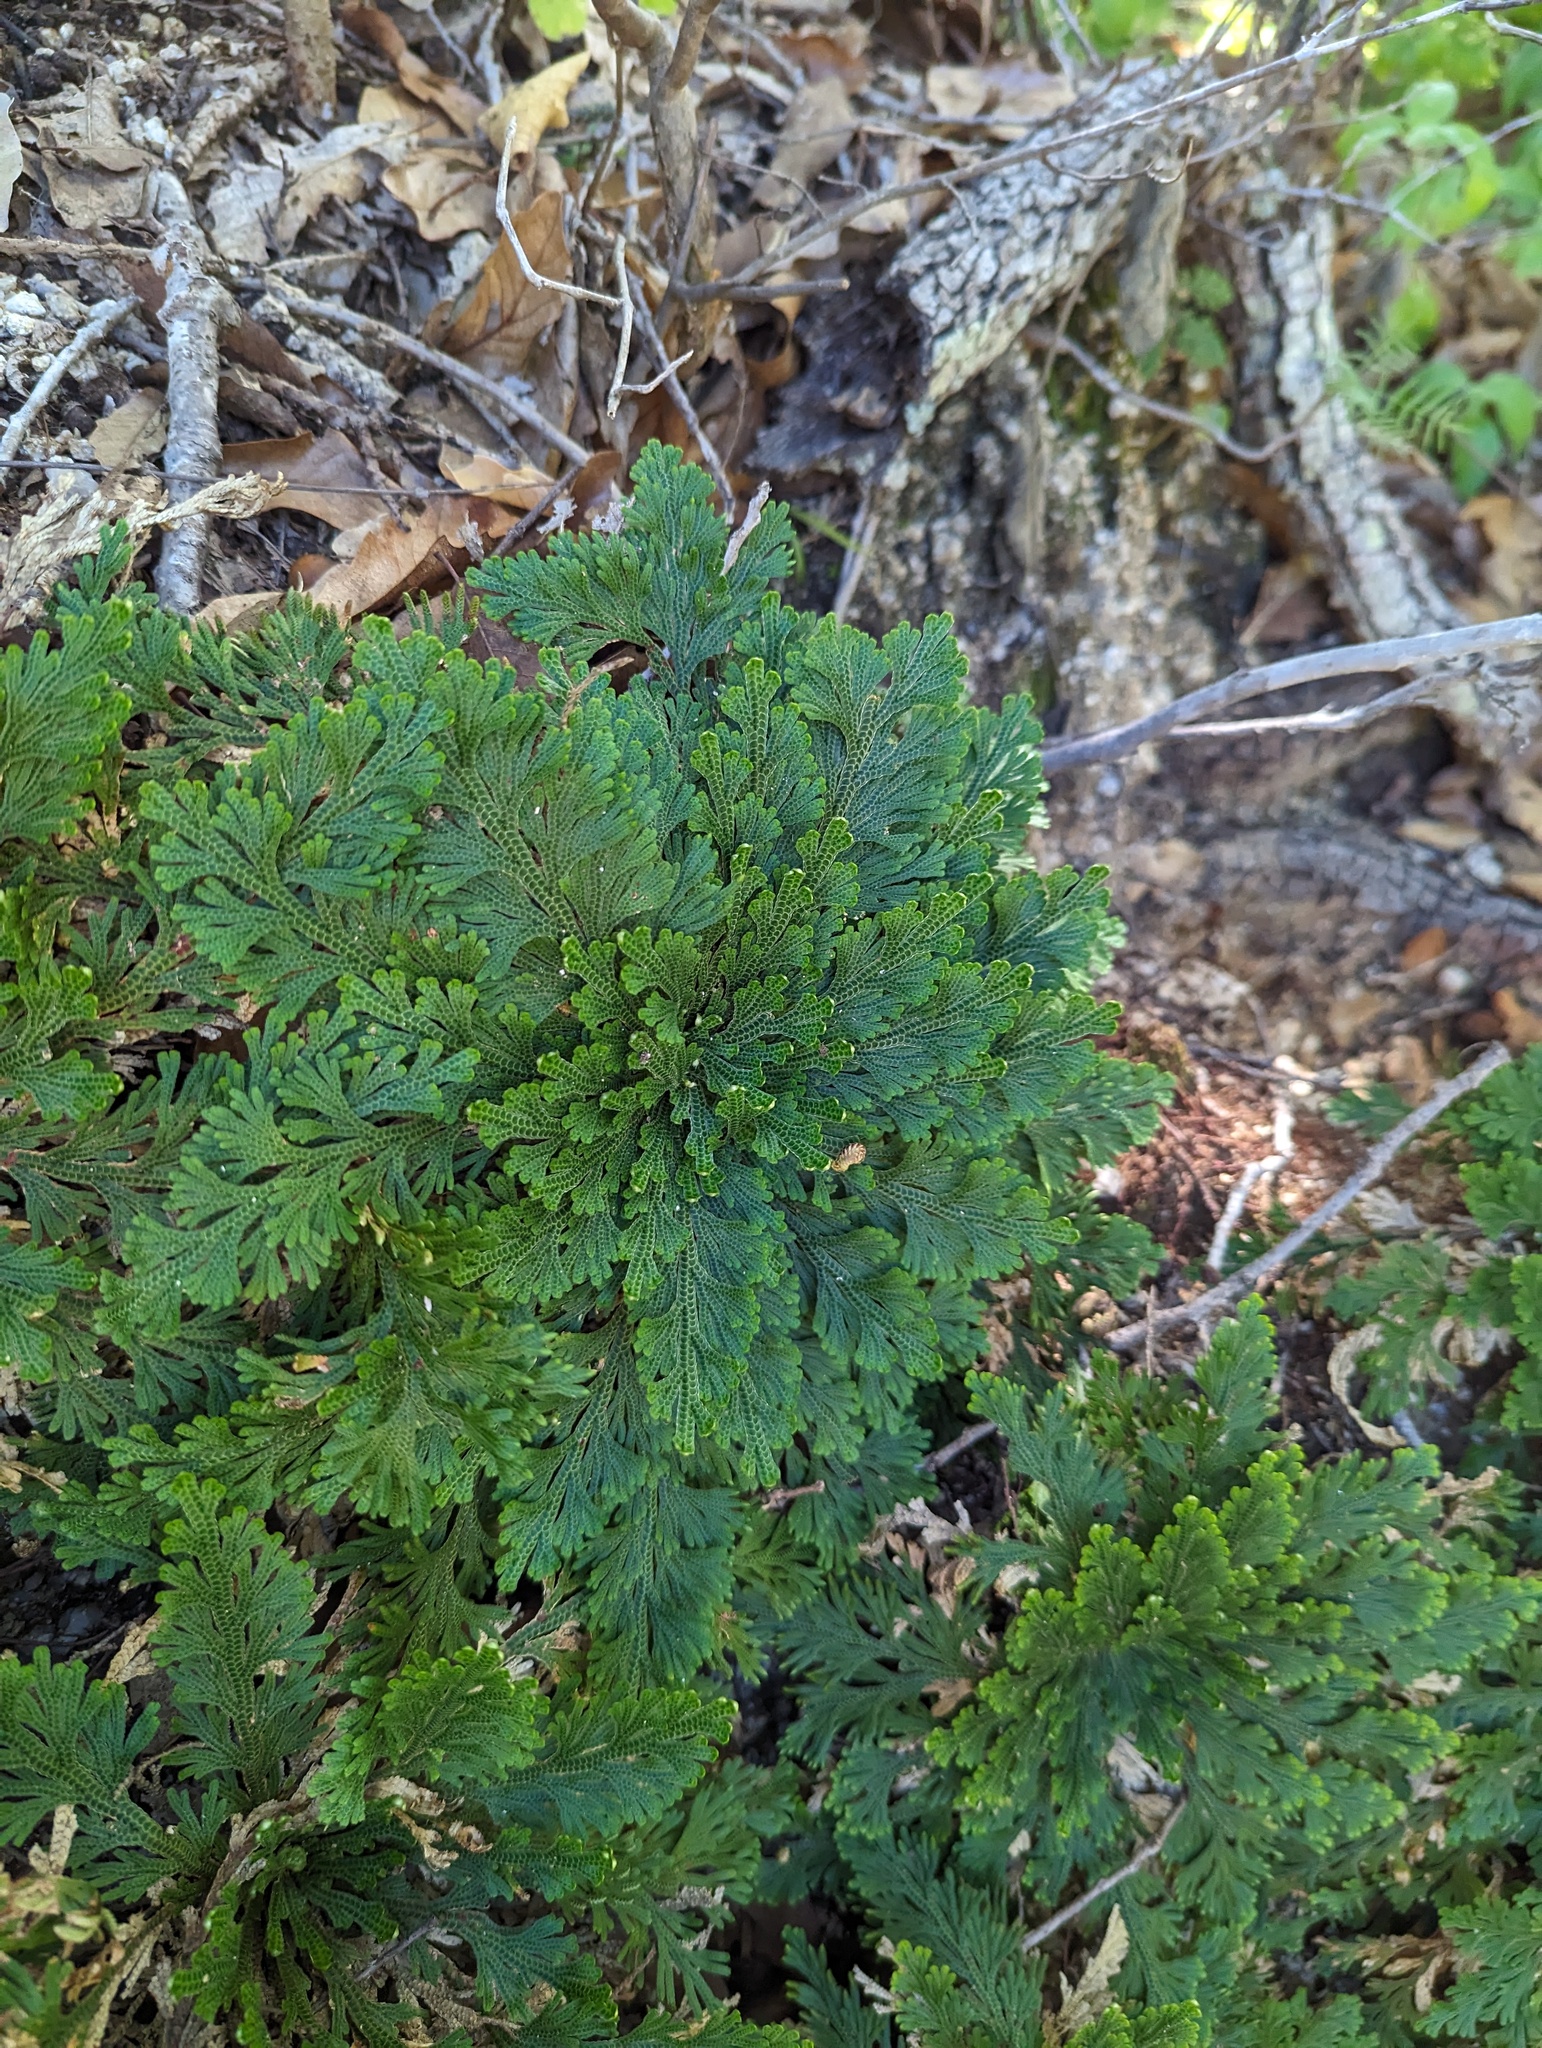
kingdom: Plantae
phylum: Tracheophyta
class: Lycopodiopsida
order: Selaginellales
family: Selaginellaceae
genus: Selaginella
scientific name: Selaginella lepidophylla
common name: Rose-of-jericho
